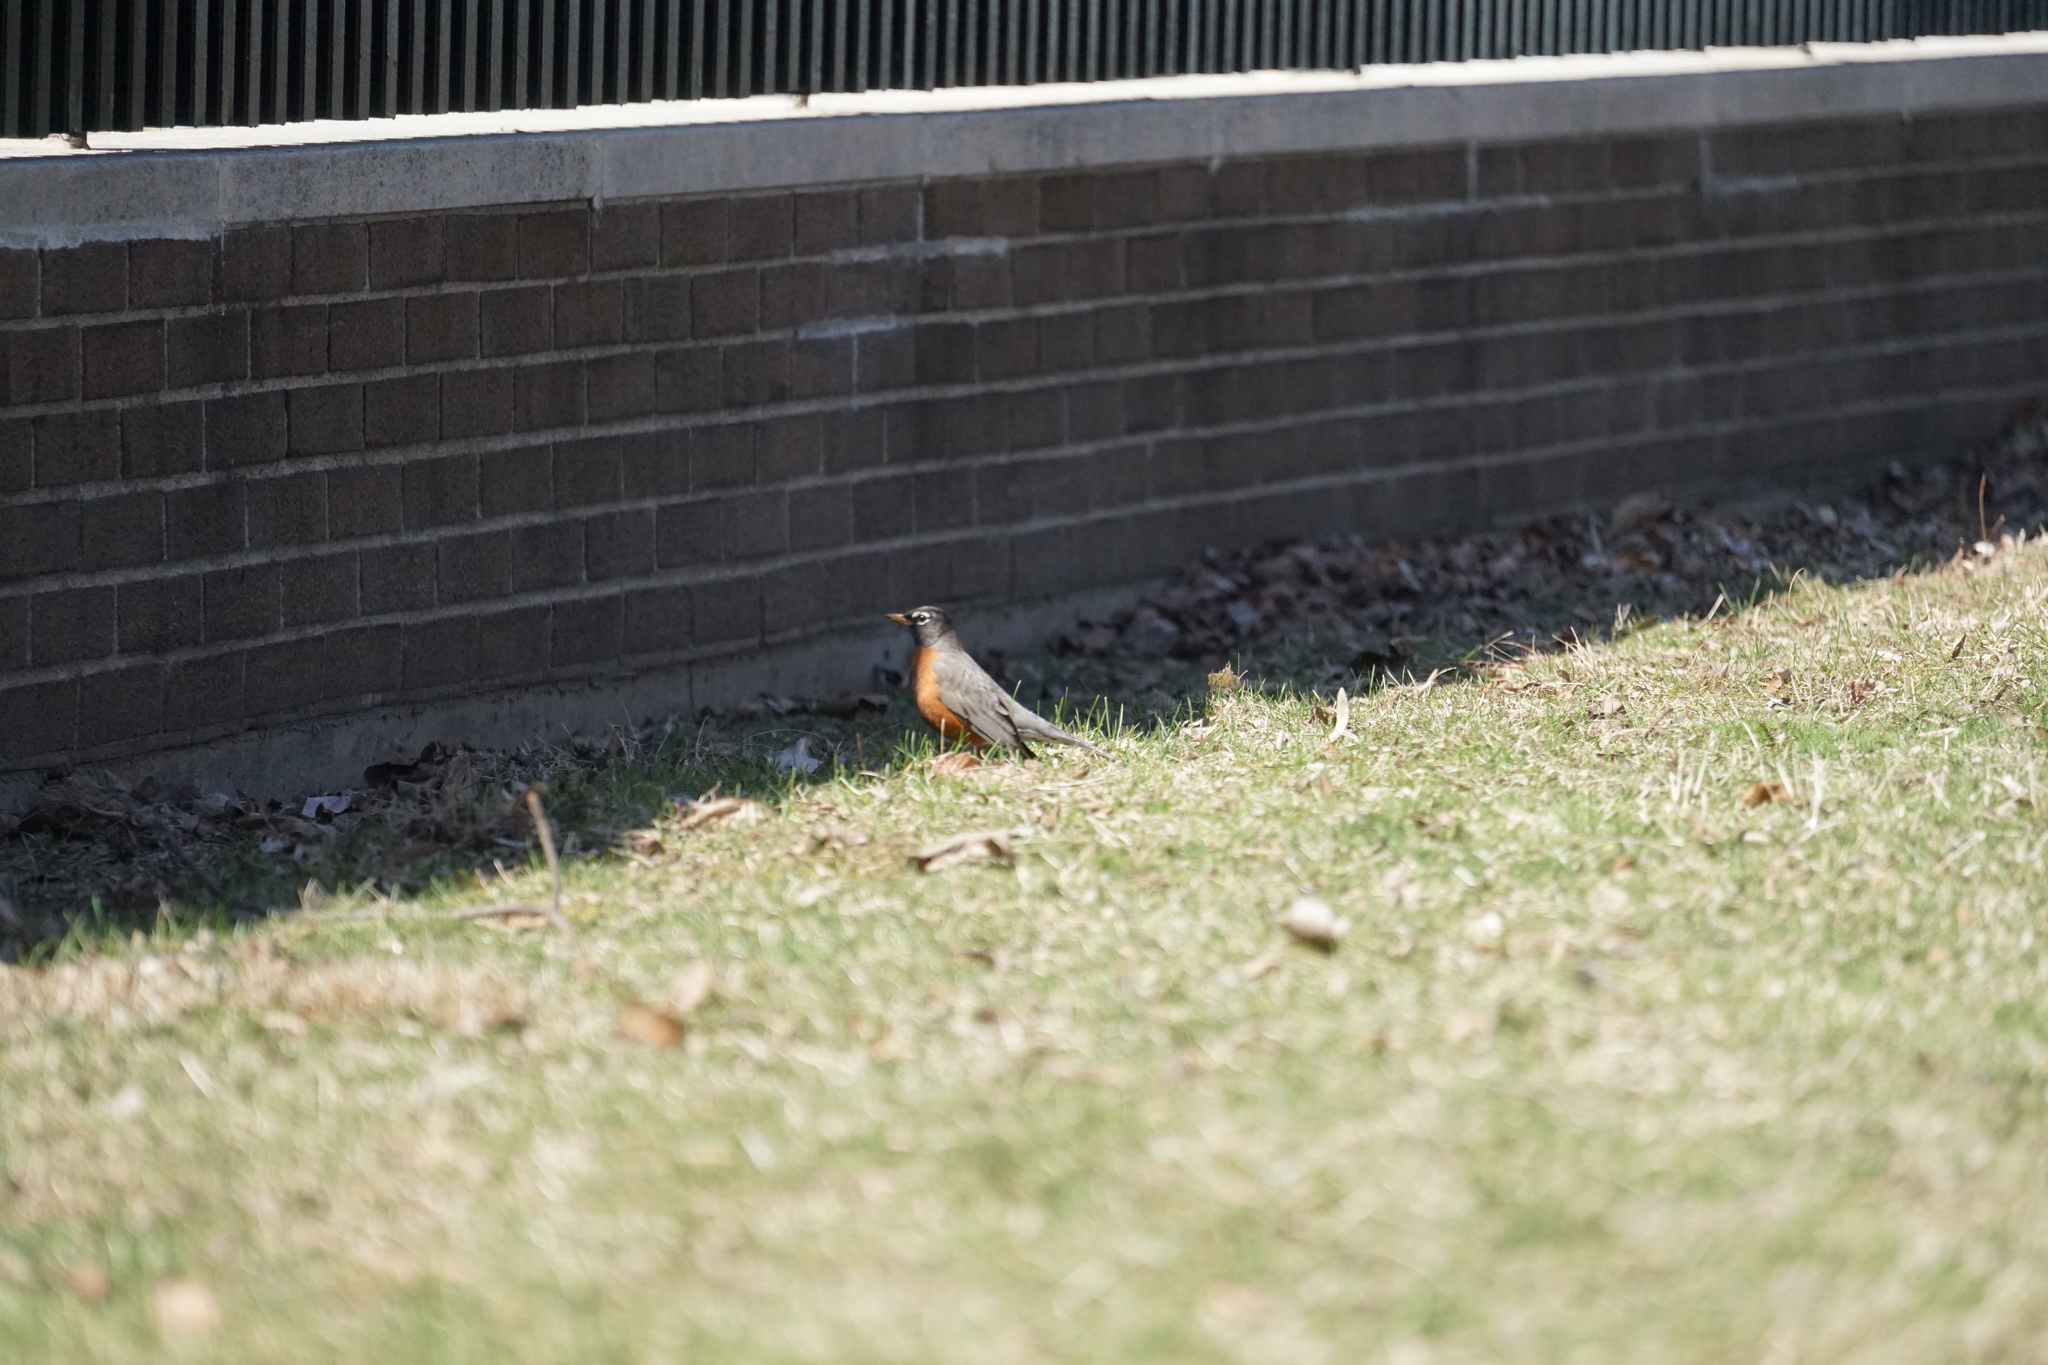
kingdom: Animalia
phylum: Chordata
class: Aves
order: Passeriformes
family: Turdidae
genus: Turdus
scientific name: Turdus migratorius
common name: American robin
